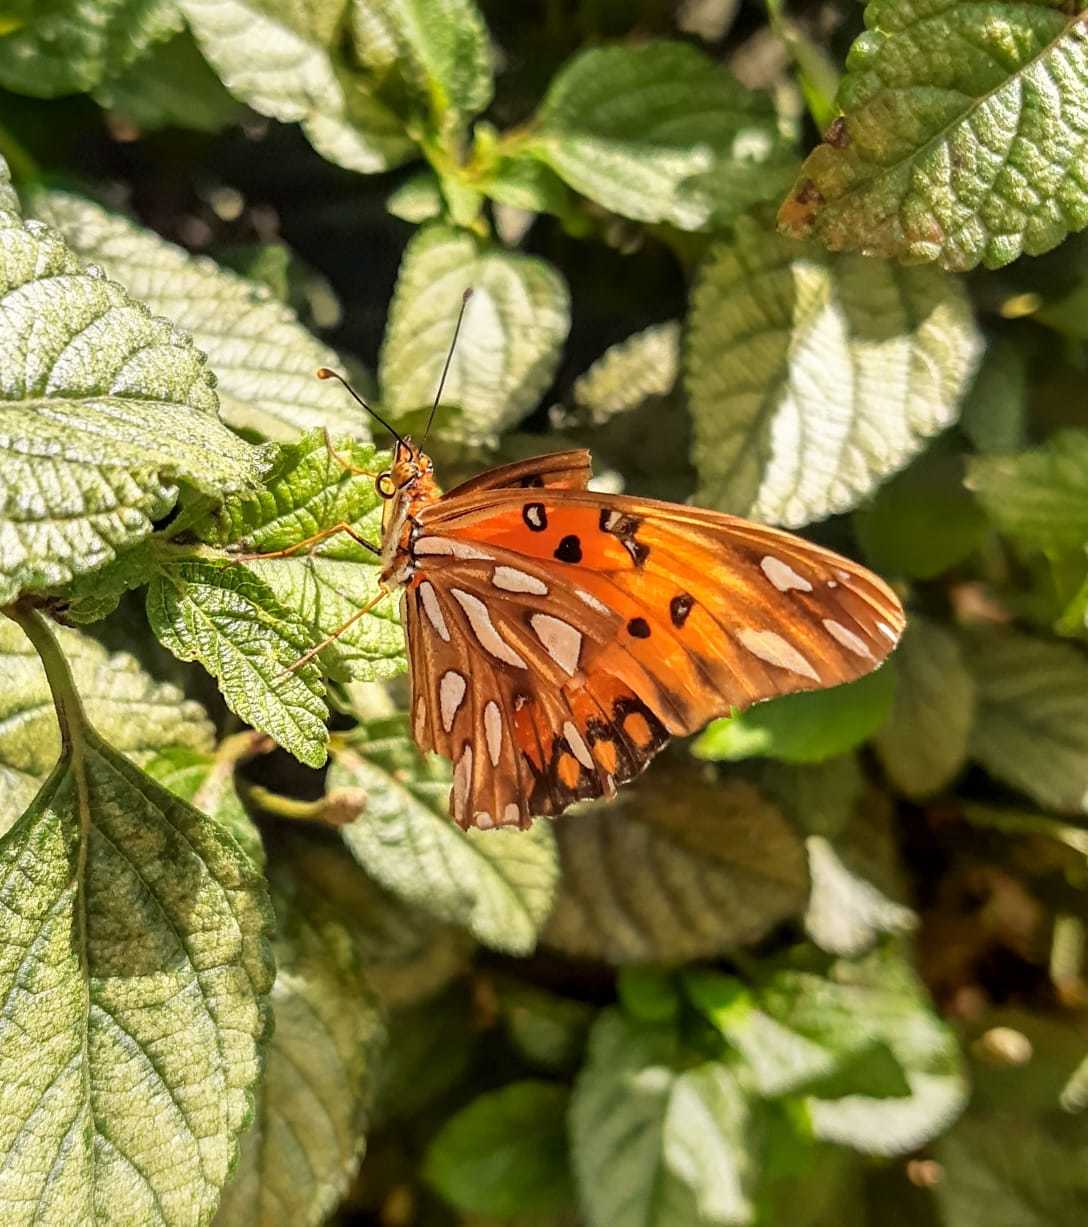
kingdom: Animalia
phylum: Arthropoda
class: Insecta
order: Lepidoptera
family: Nymphalidae
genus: Dione
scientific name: Dione vanillae
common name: Gulf fritillary
